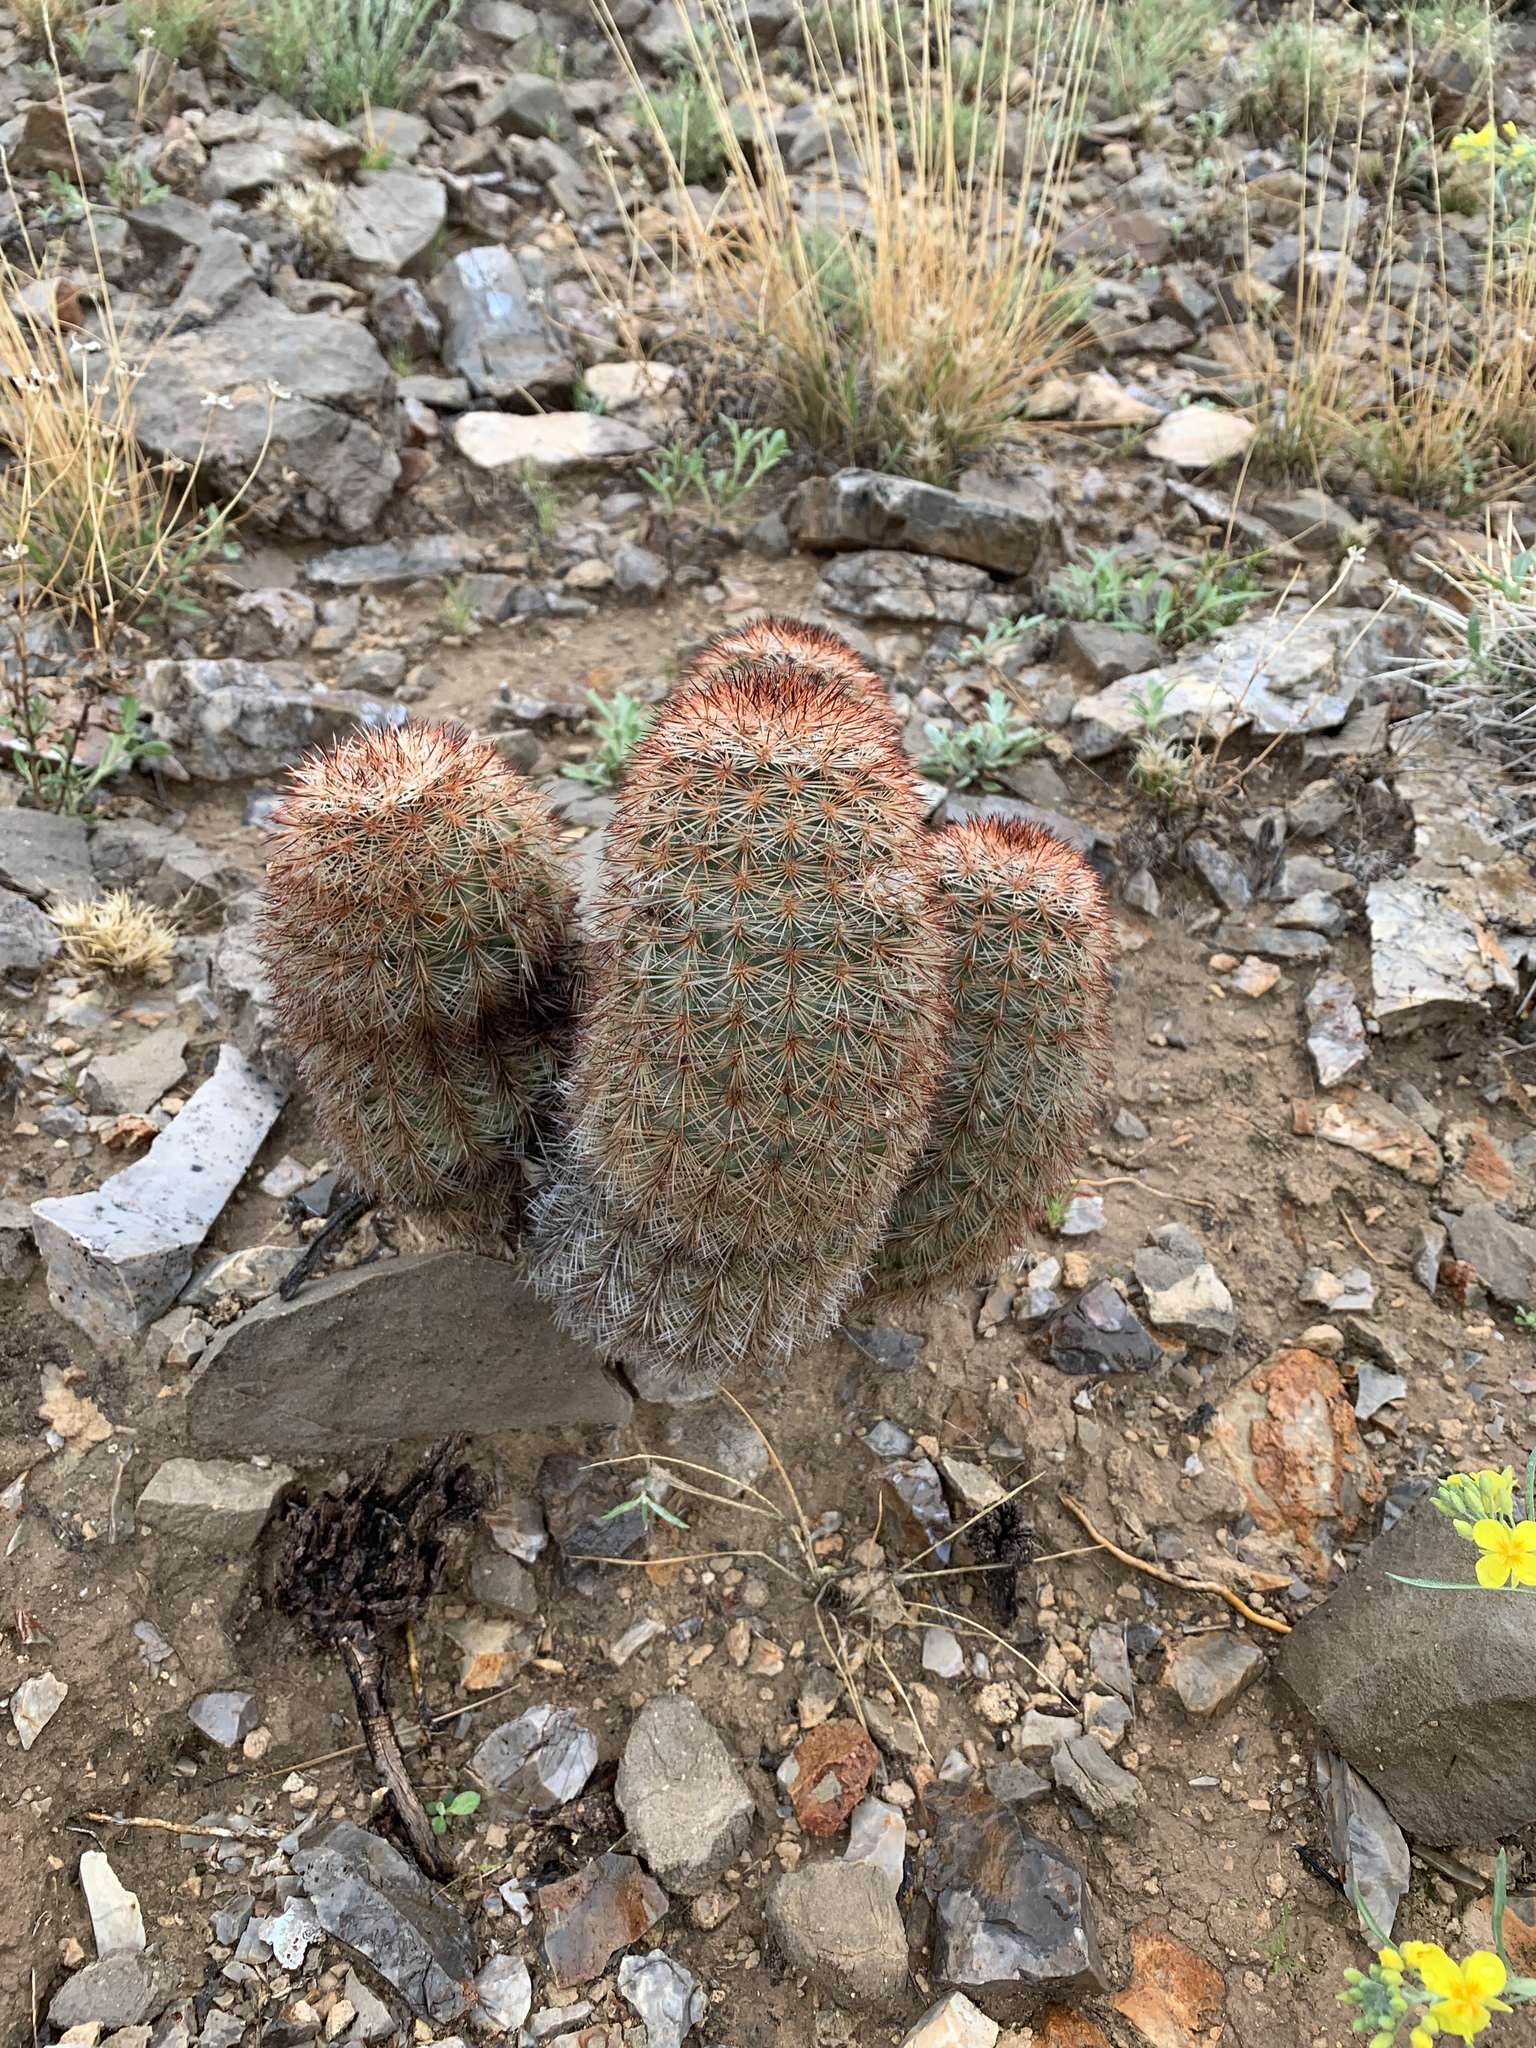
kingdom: Plantae
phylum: Tracheophyta
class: Magnoliopsida
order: Caryophyllales
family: Cactaceae
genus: Echinocereus
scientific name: Echinocereus dasyacanthus
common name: Spiny hedgehog cactus
